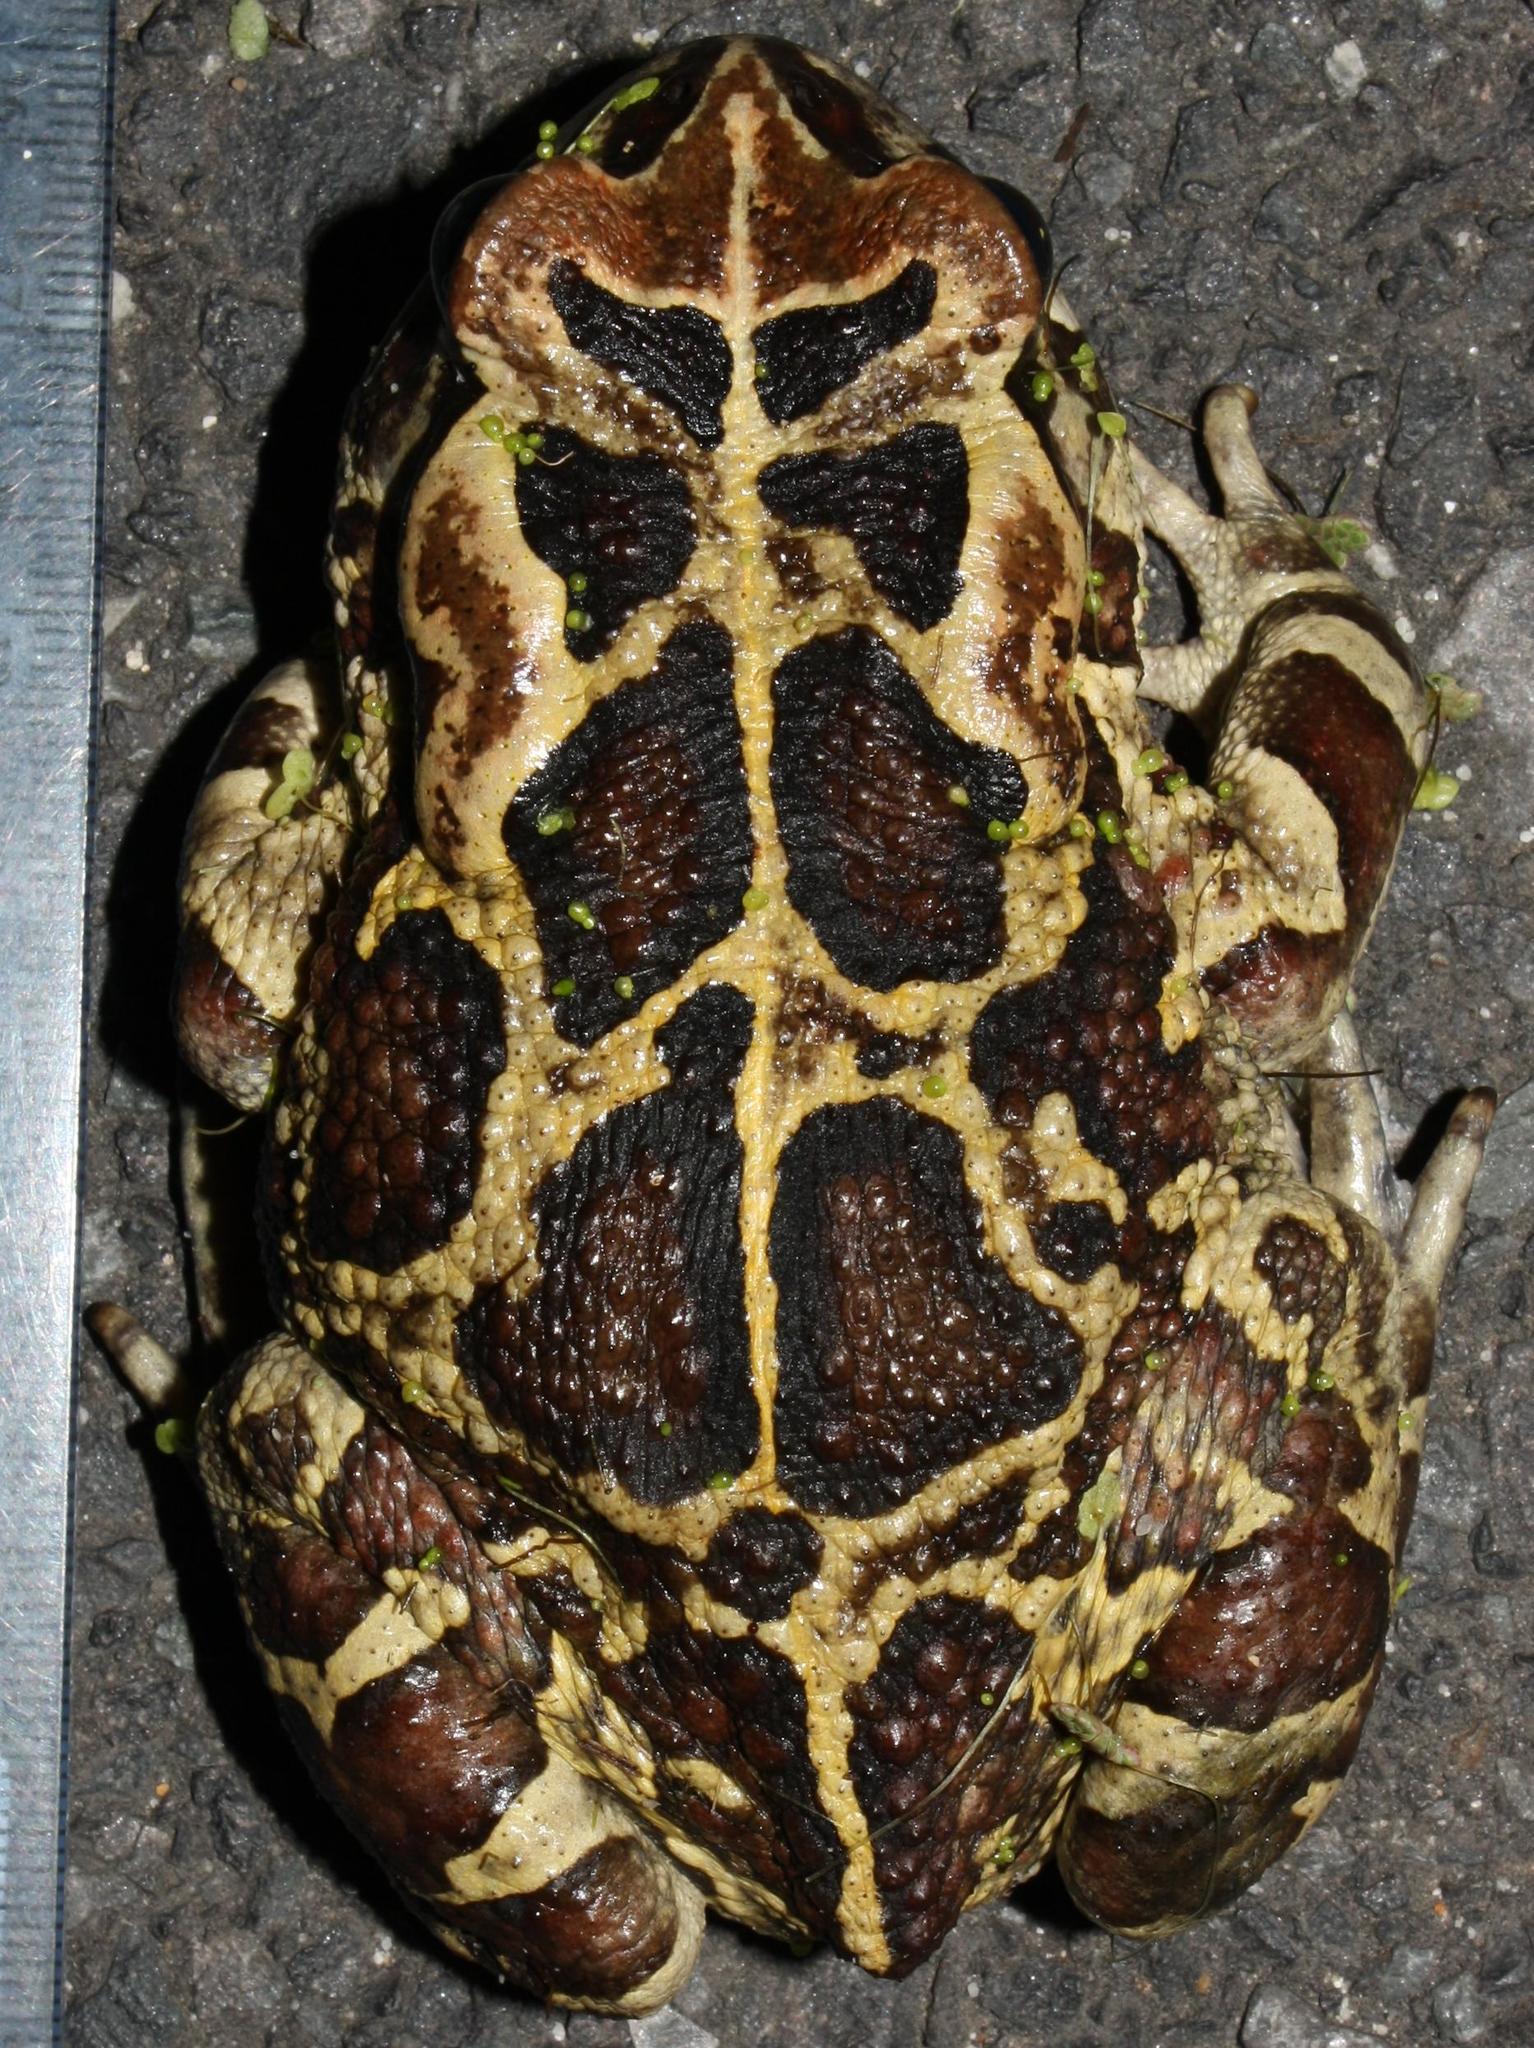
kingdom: Animalia
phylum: Chordata
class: Amphibia
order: Anura
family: Bufonidae
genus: Sclerophrys
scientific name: Sclerophrys pantherina
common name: Panther toad
